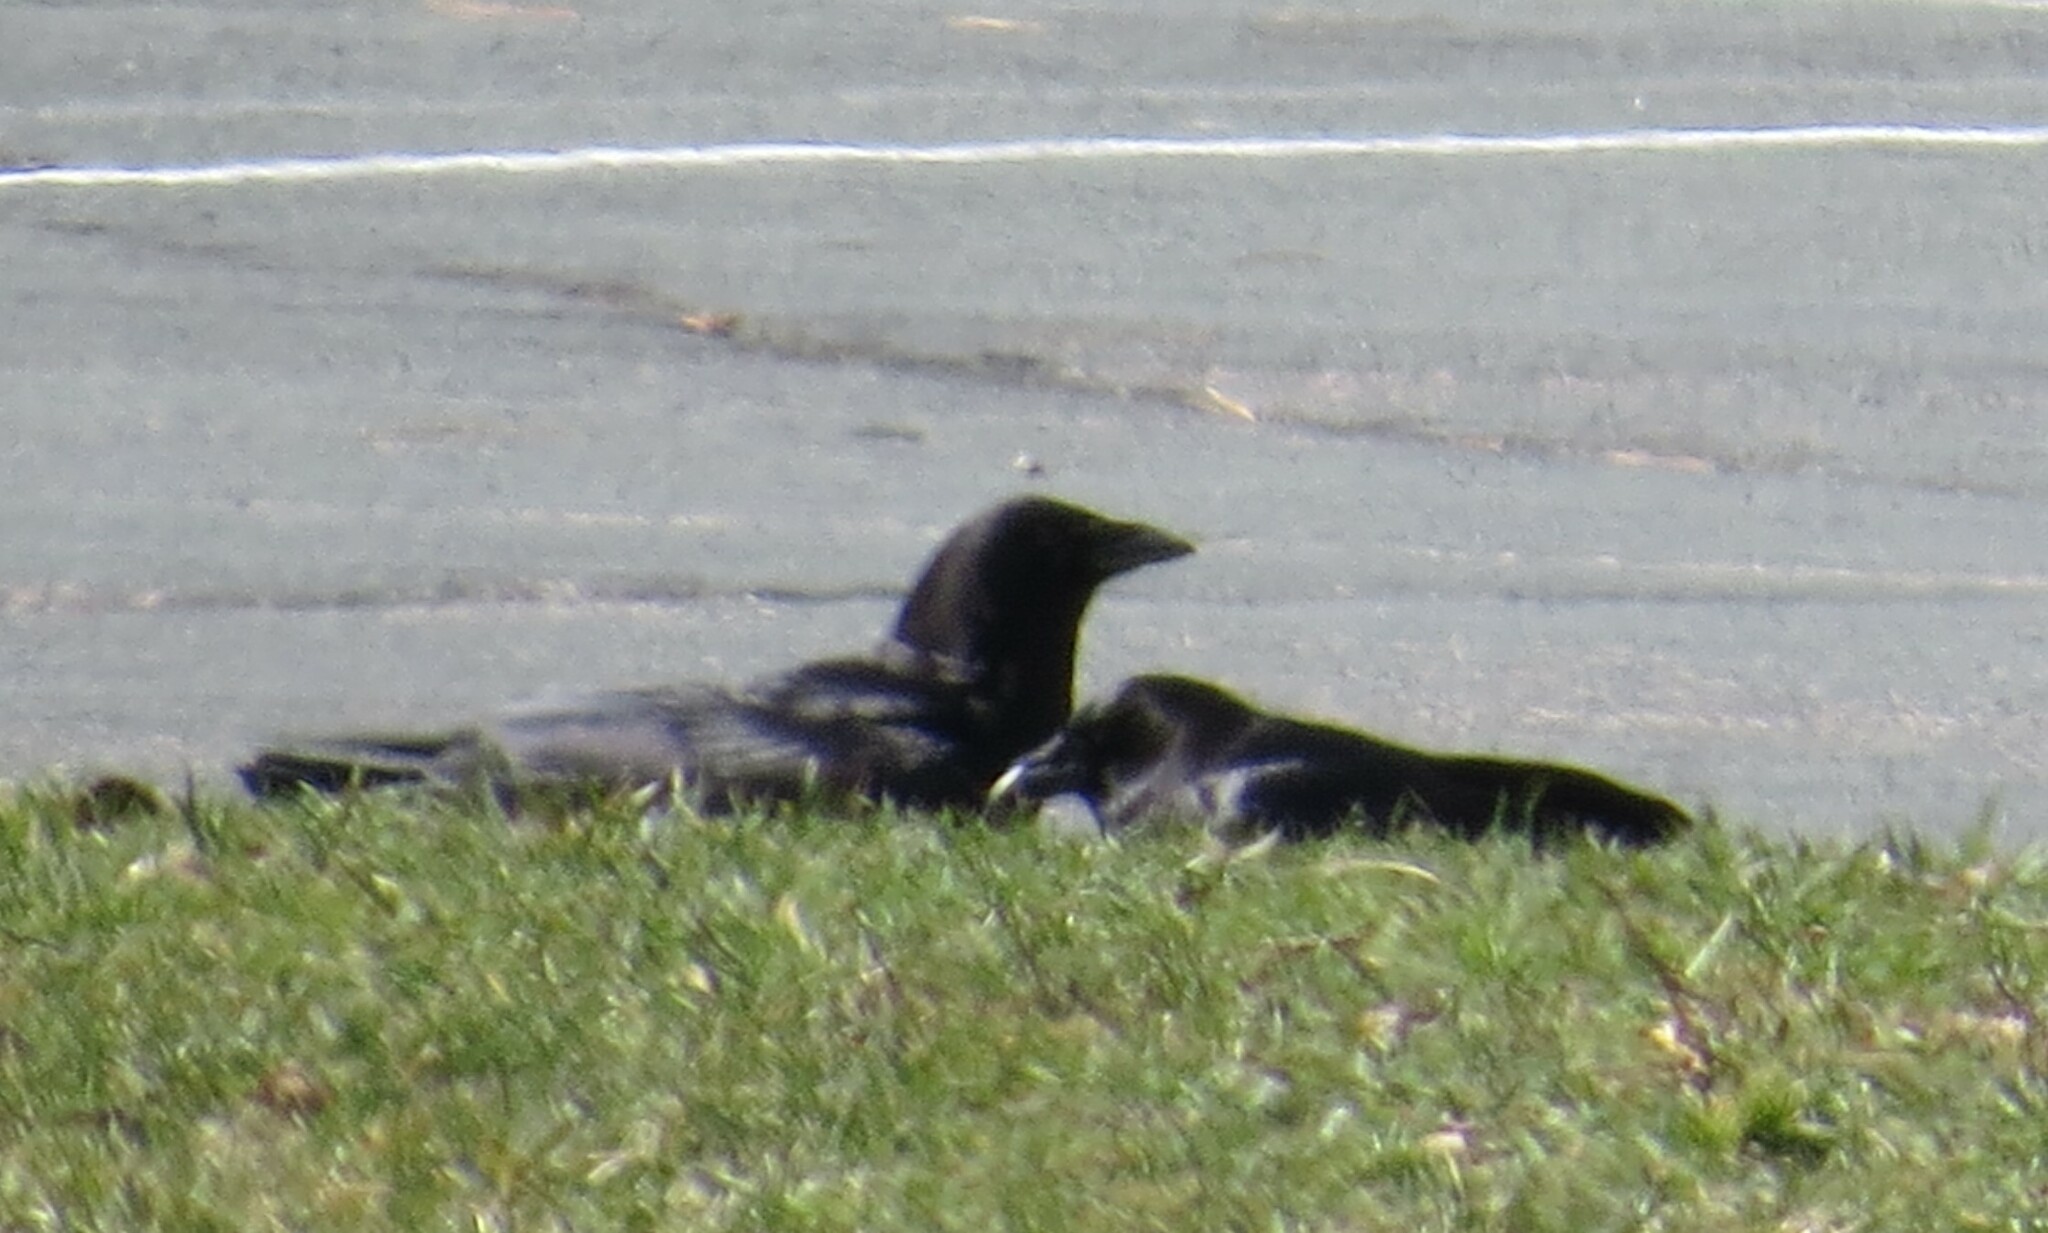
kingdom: Animalia
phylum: Chordata
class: Aves
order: Passeriformes
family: Corvidae
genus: Corvus
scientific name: Corvus brachyrhynchos
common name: American crow
